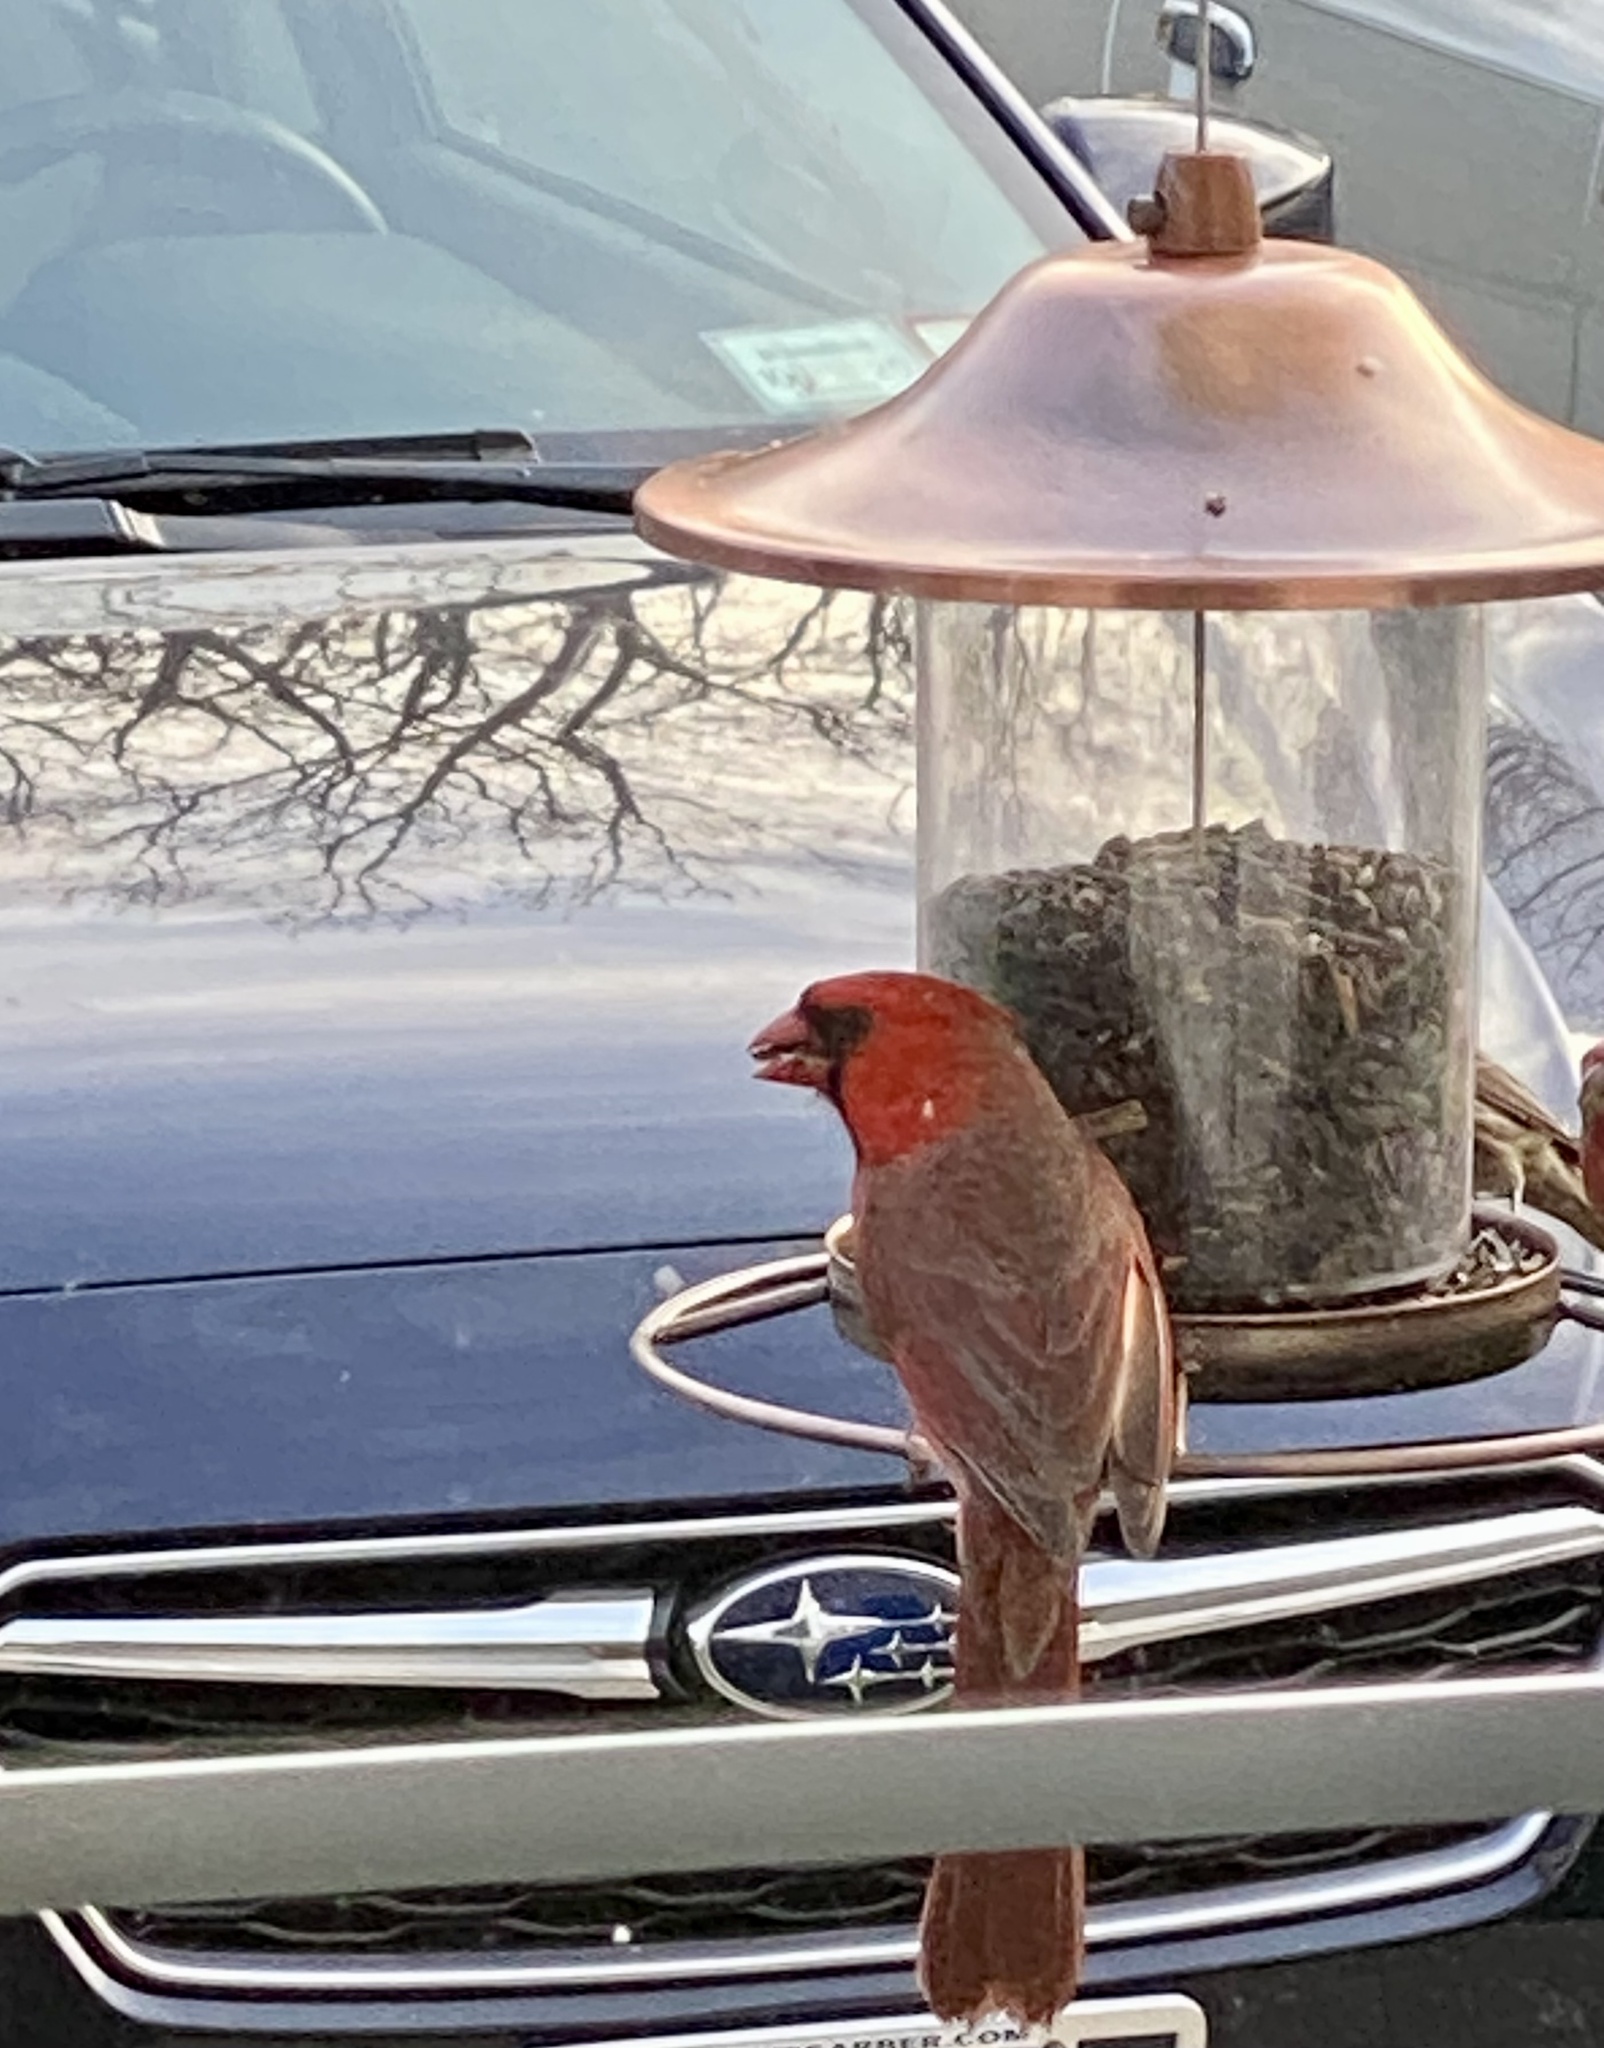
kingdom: Animalia
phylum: Chordata
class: Aves
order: Passeriformes
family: Cardinalidae
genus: Cardinalis
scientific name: Cardinalis cardinalis
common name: Northern cardinal
